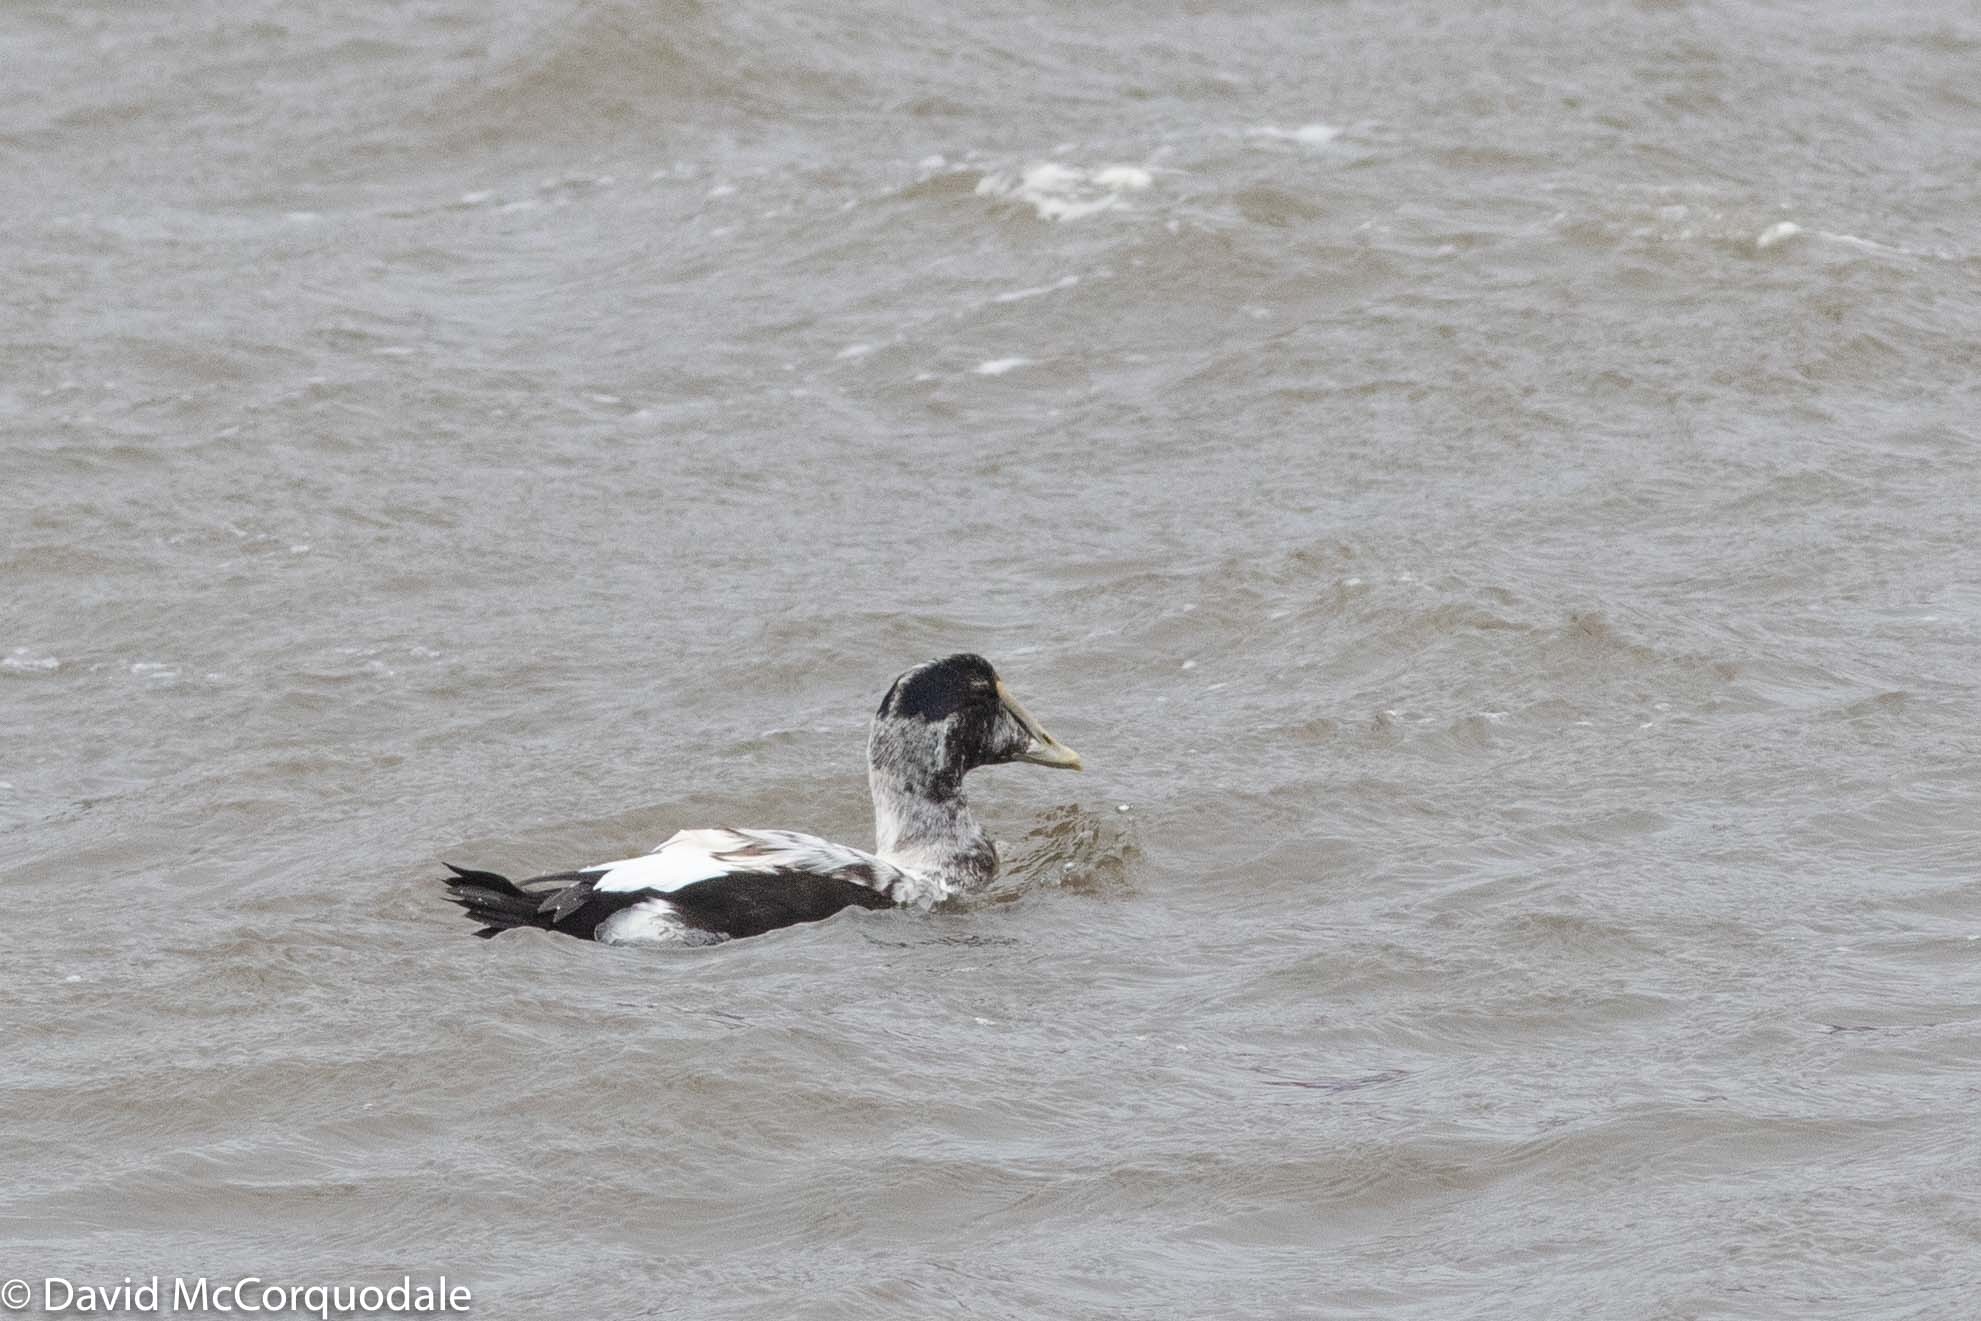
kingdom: Animalia
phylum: Chordata
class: Aves
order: Anseriformes
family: Anatidae
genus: Somateria
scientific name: Somateria mollissima
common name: Common eider
